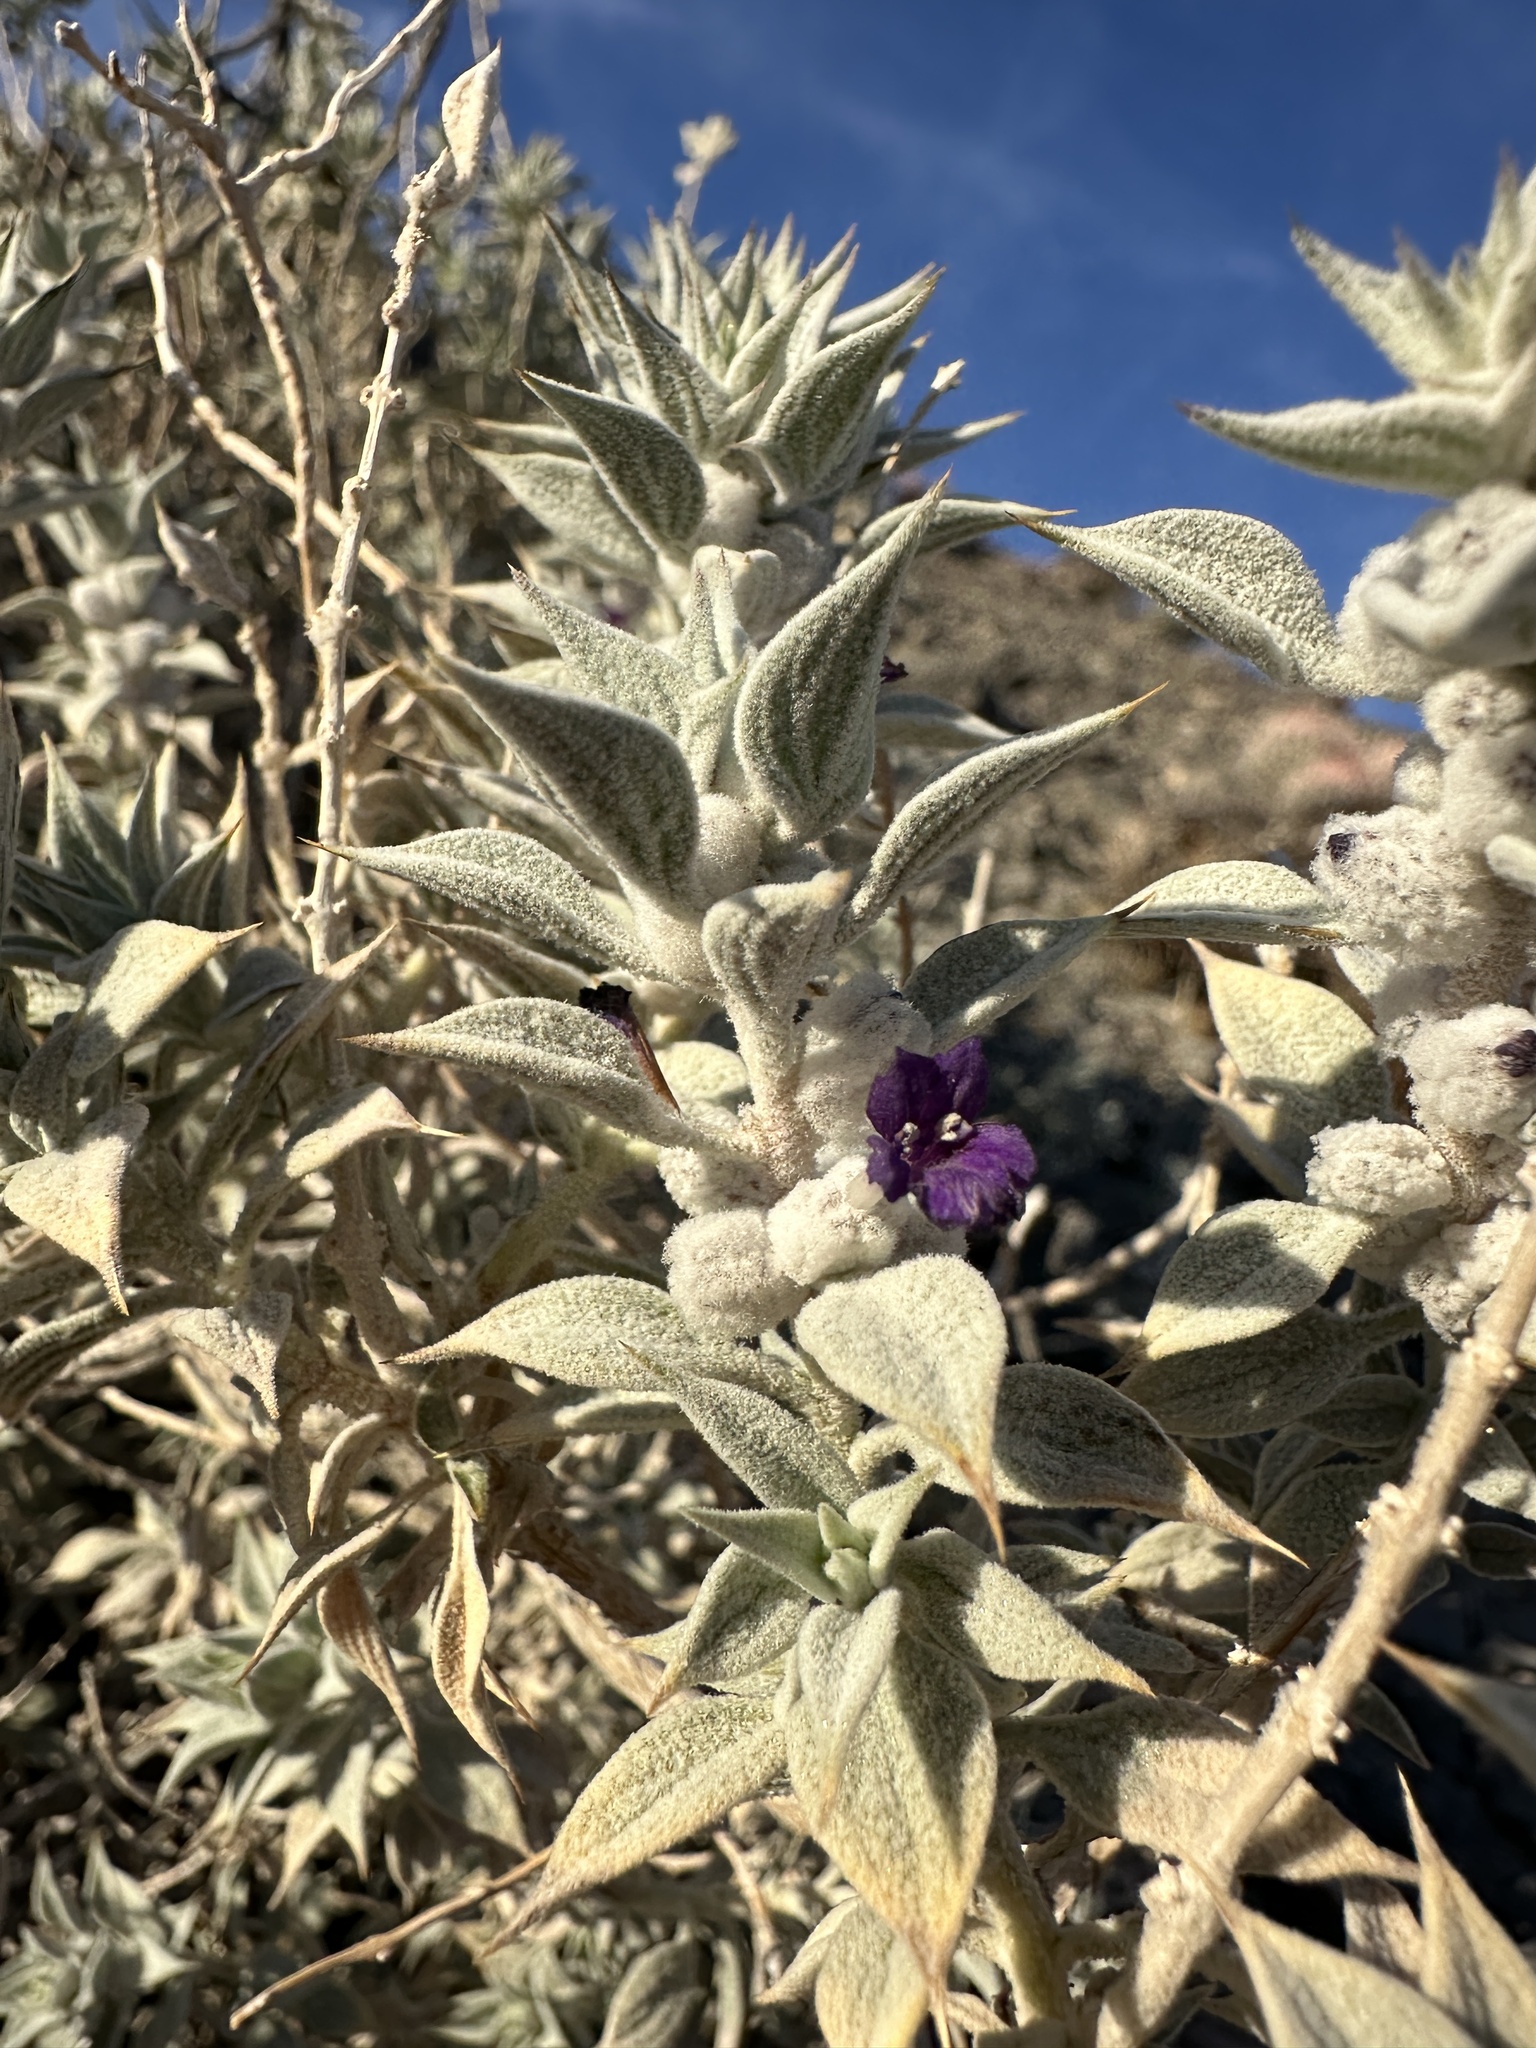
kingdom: Plantae
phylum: Tracheophyta
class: Magnoliopsida
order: Lamiales
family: Lamiaceae
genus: Salvia
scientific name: Salvia funerea
